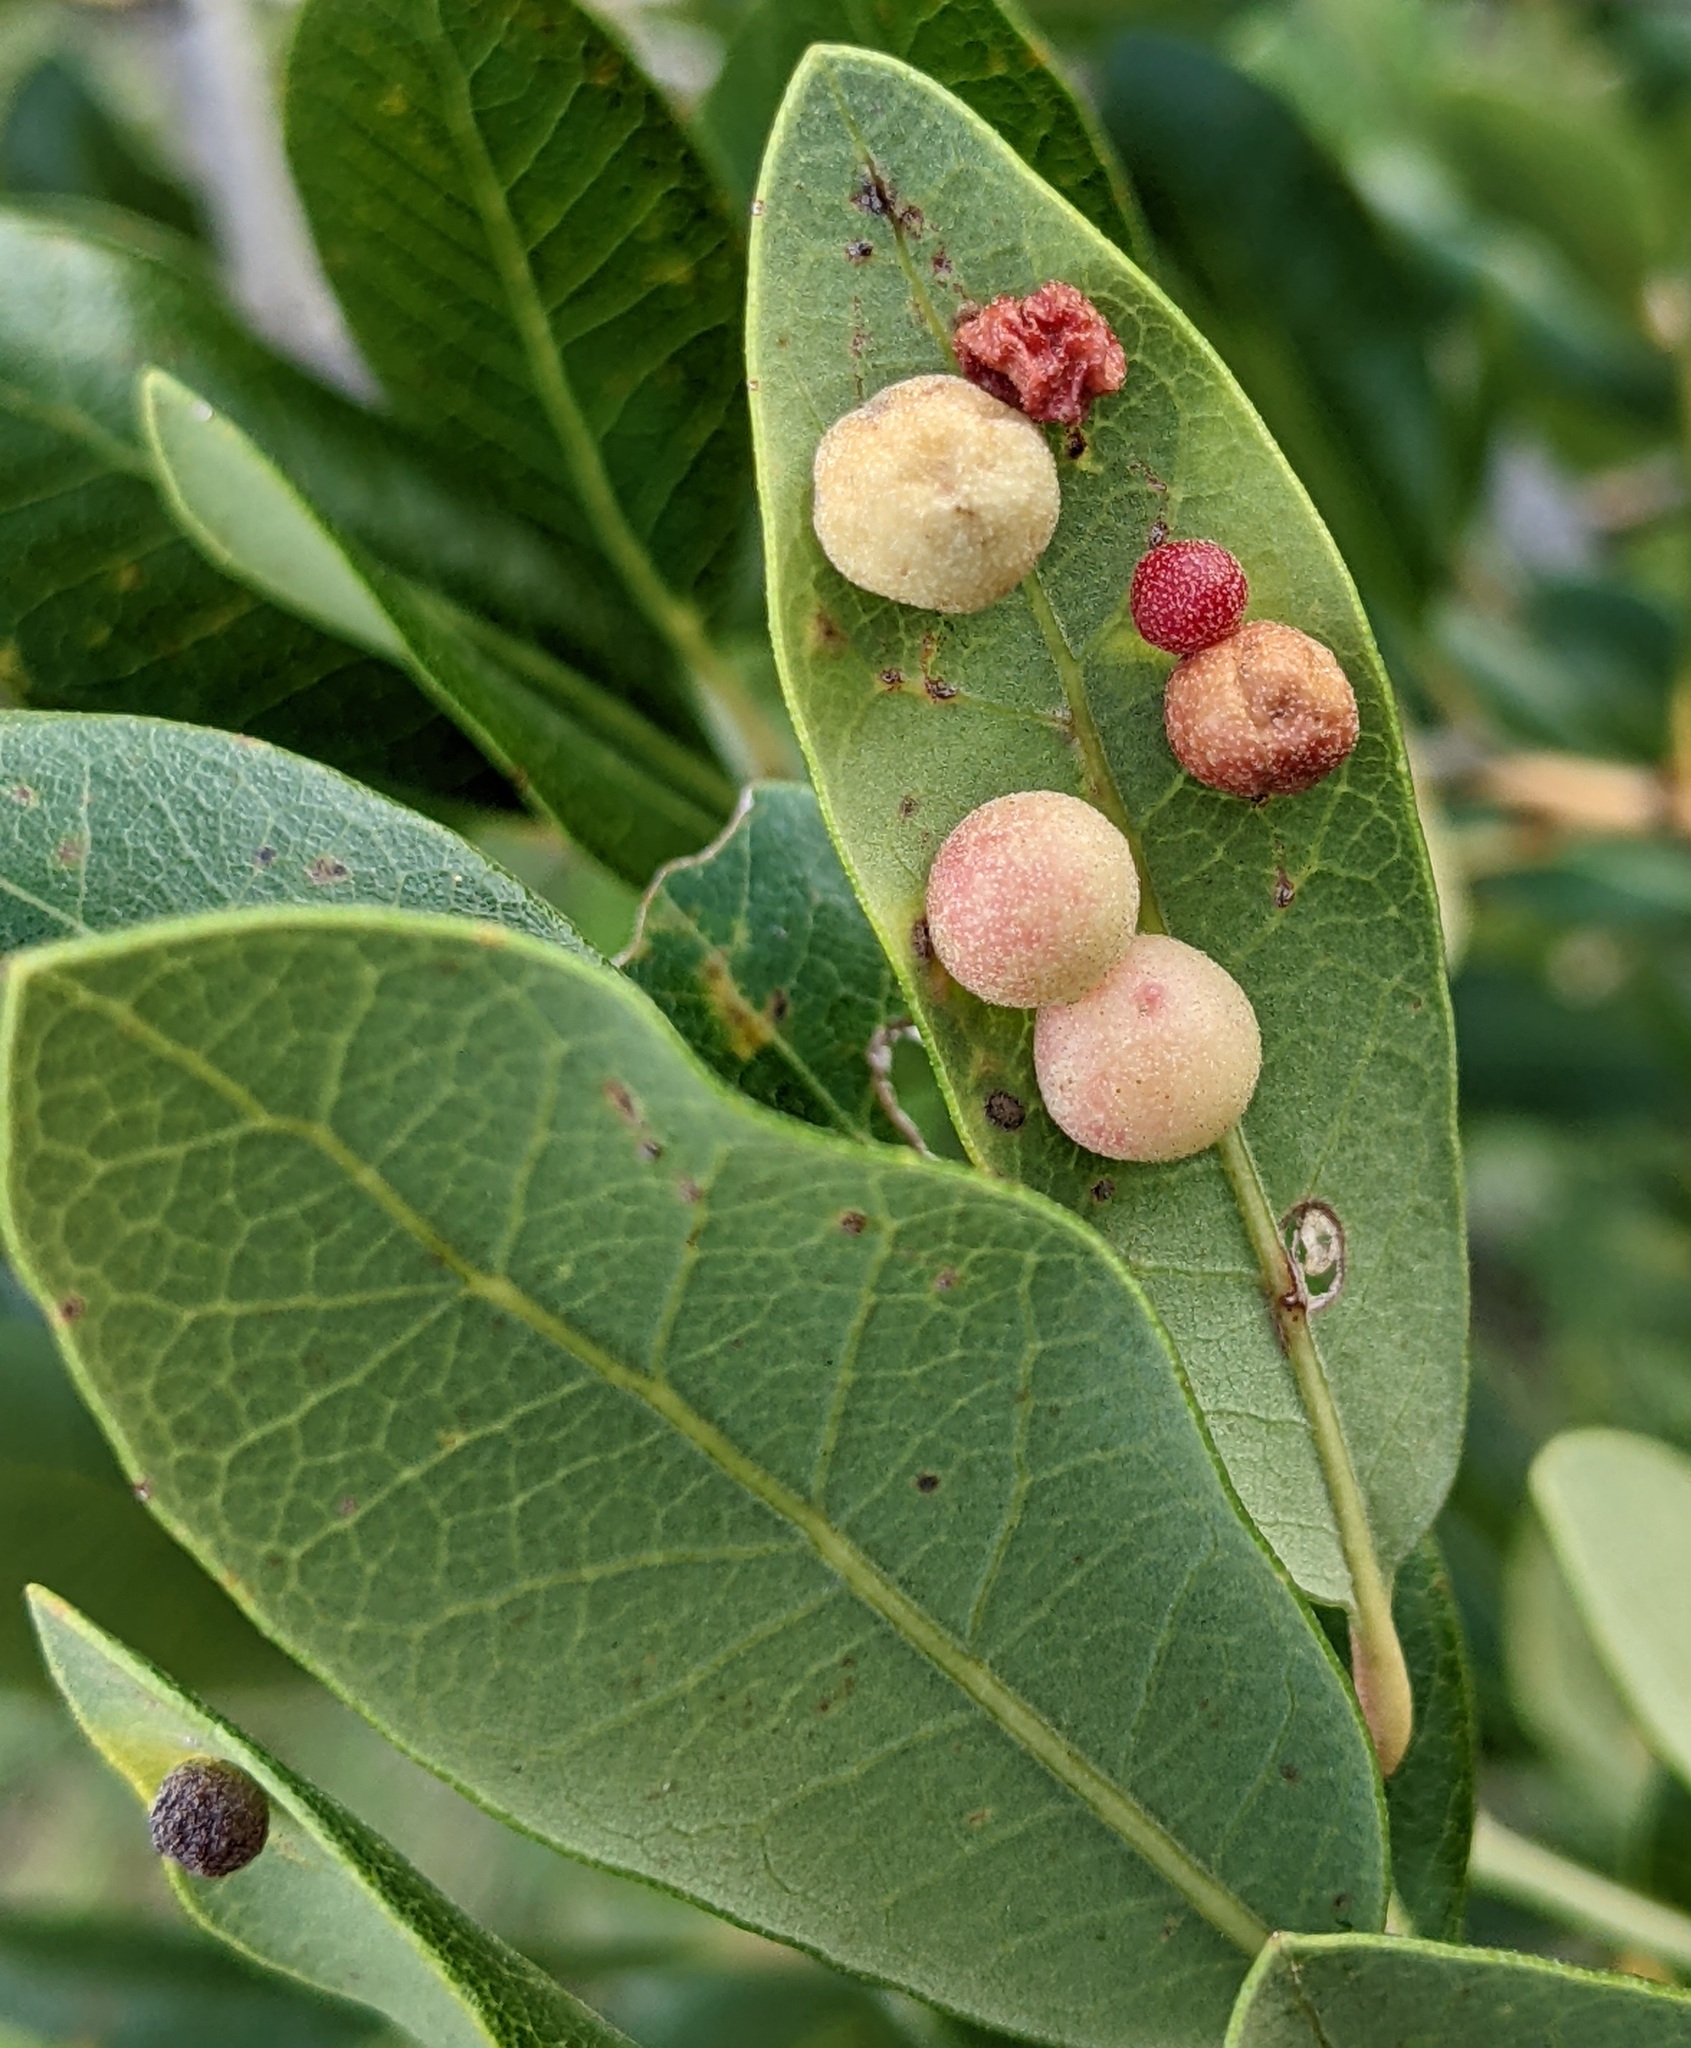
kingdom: Animalia
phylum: Arthropoda
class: Insecta
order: Hymenoptera
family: Cynipidae
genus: Belonocnema
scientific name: Belonocnema kinseyi
